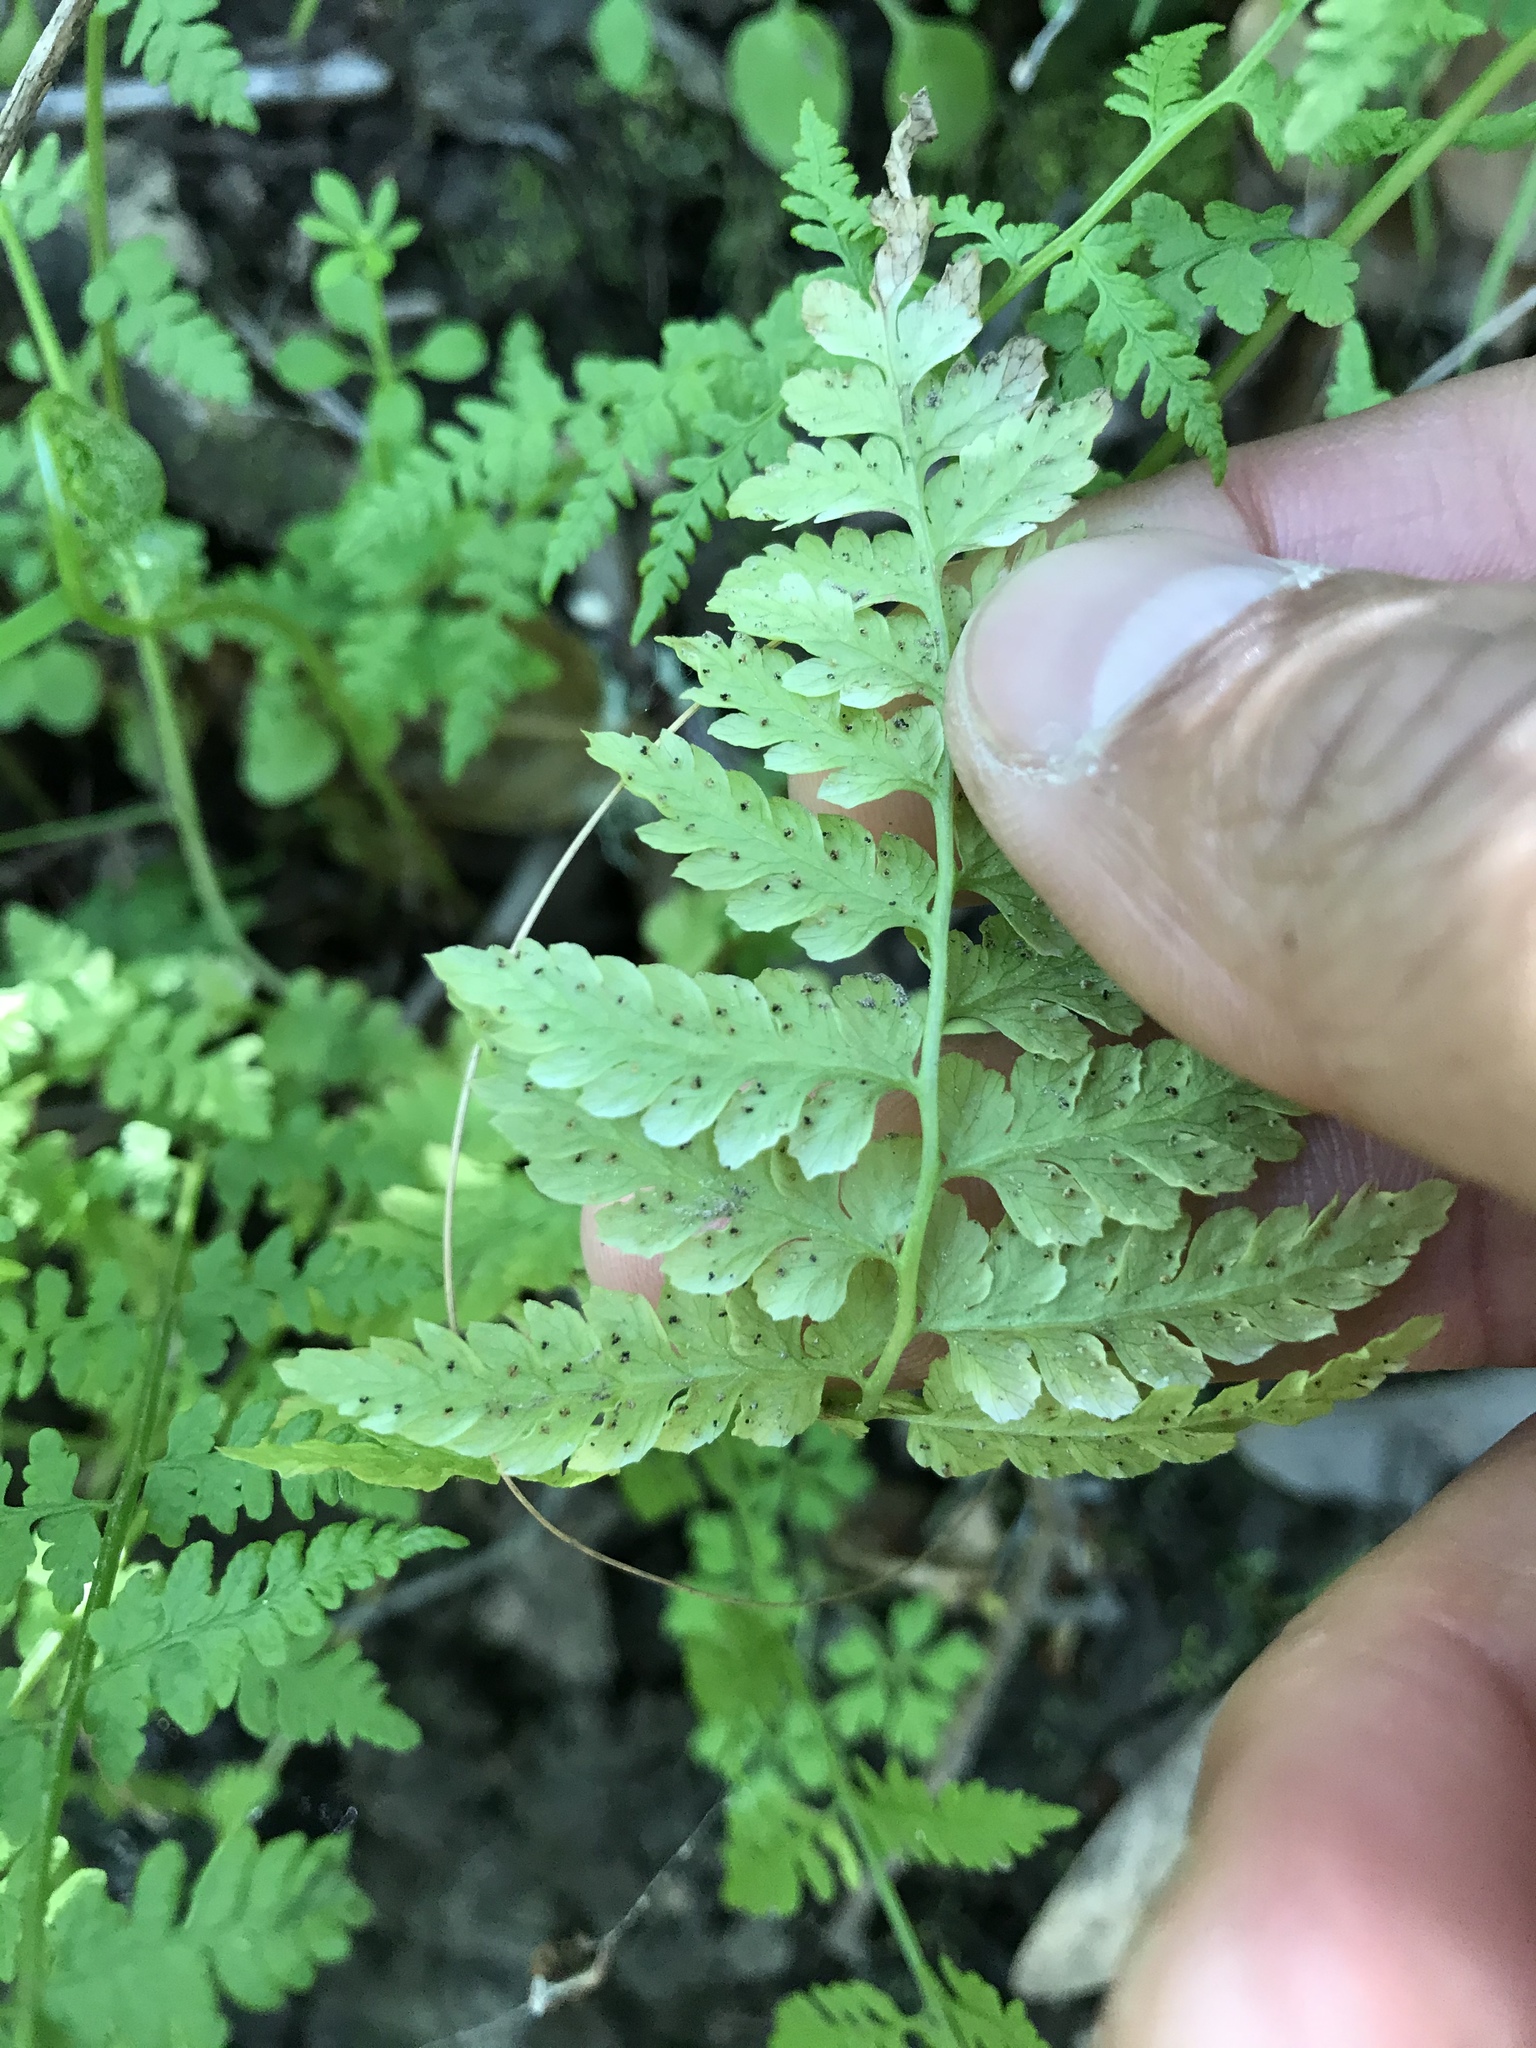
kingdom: Plantae
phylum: Tracheophyta
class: Polypodiopsida
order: Polypodiales
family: Cystopteridaceae
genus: Cystopteris
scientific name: Cystopteris fragilis
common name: Brittle bladder fern
